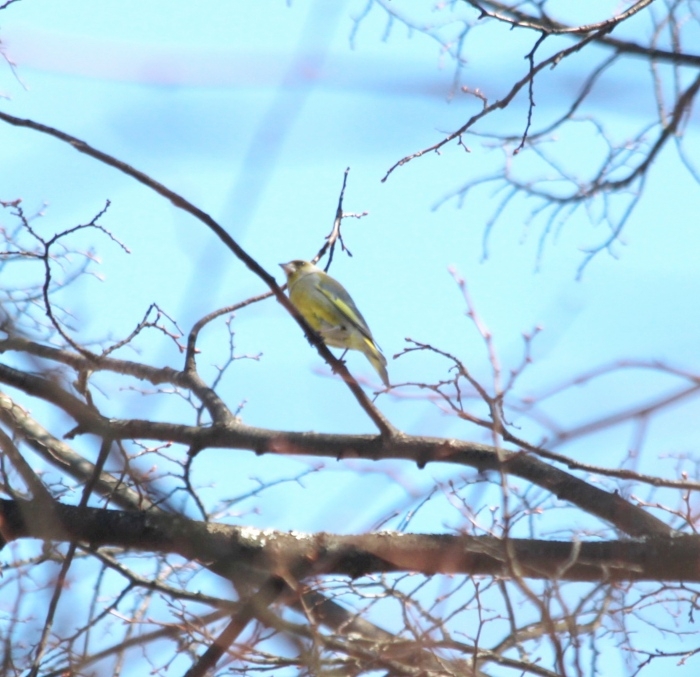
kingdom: Plantae
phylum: Tracheophyta
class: Liliopsida
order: Poales
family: Poaceae
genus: Chloris
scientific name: Chloris chloris
